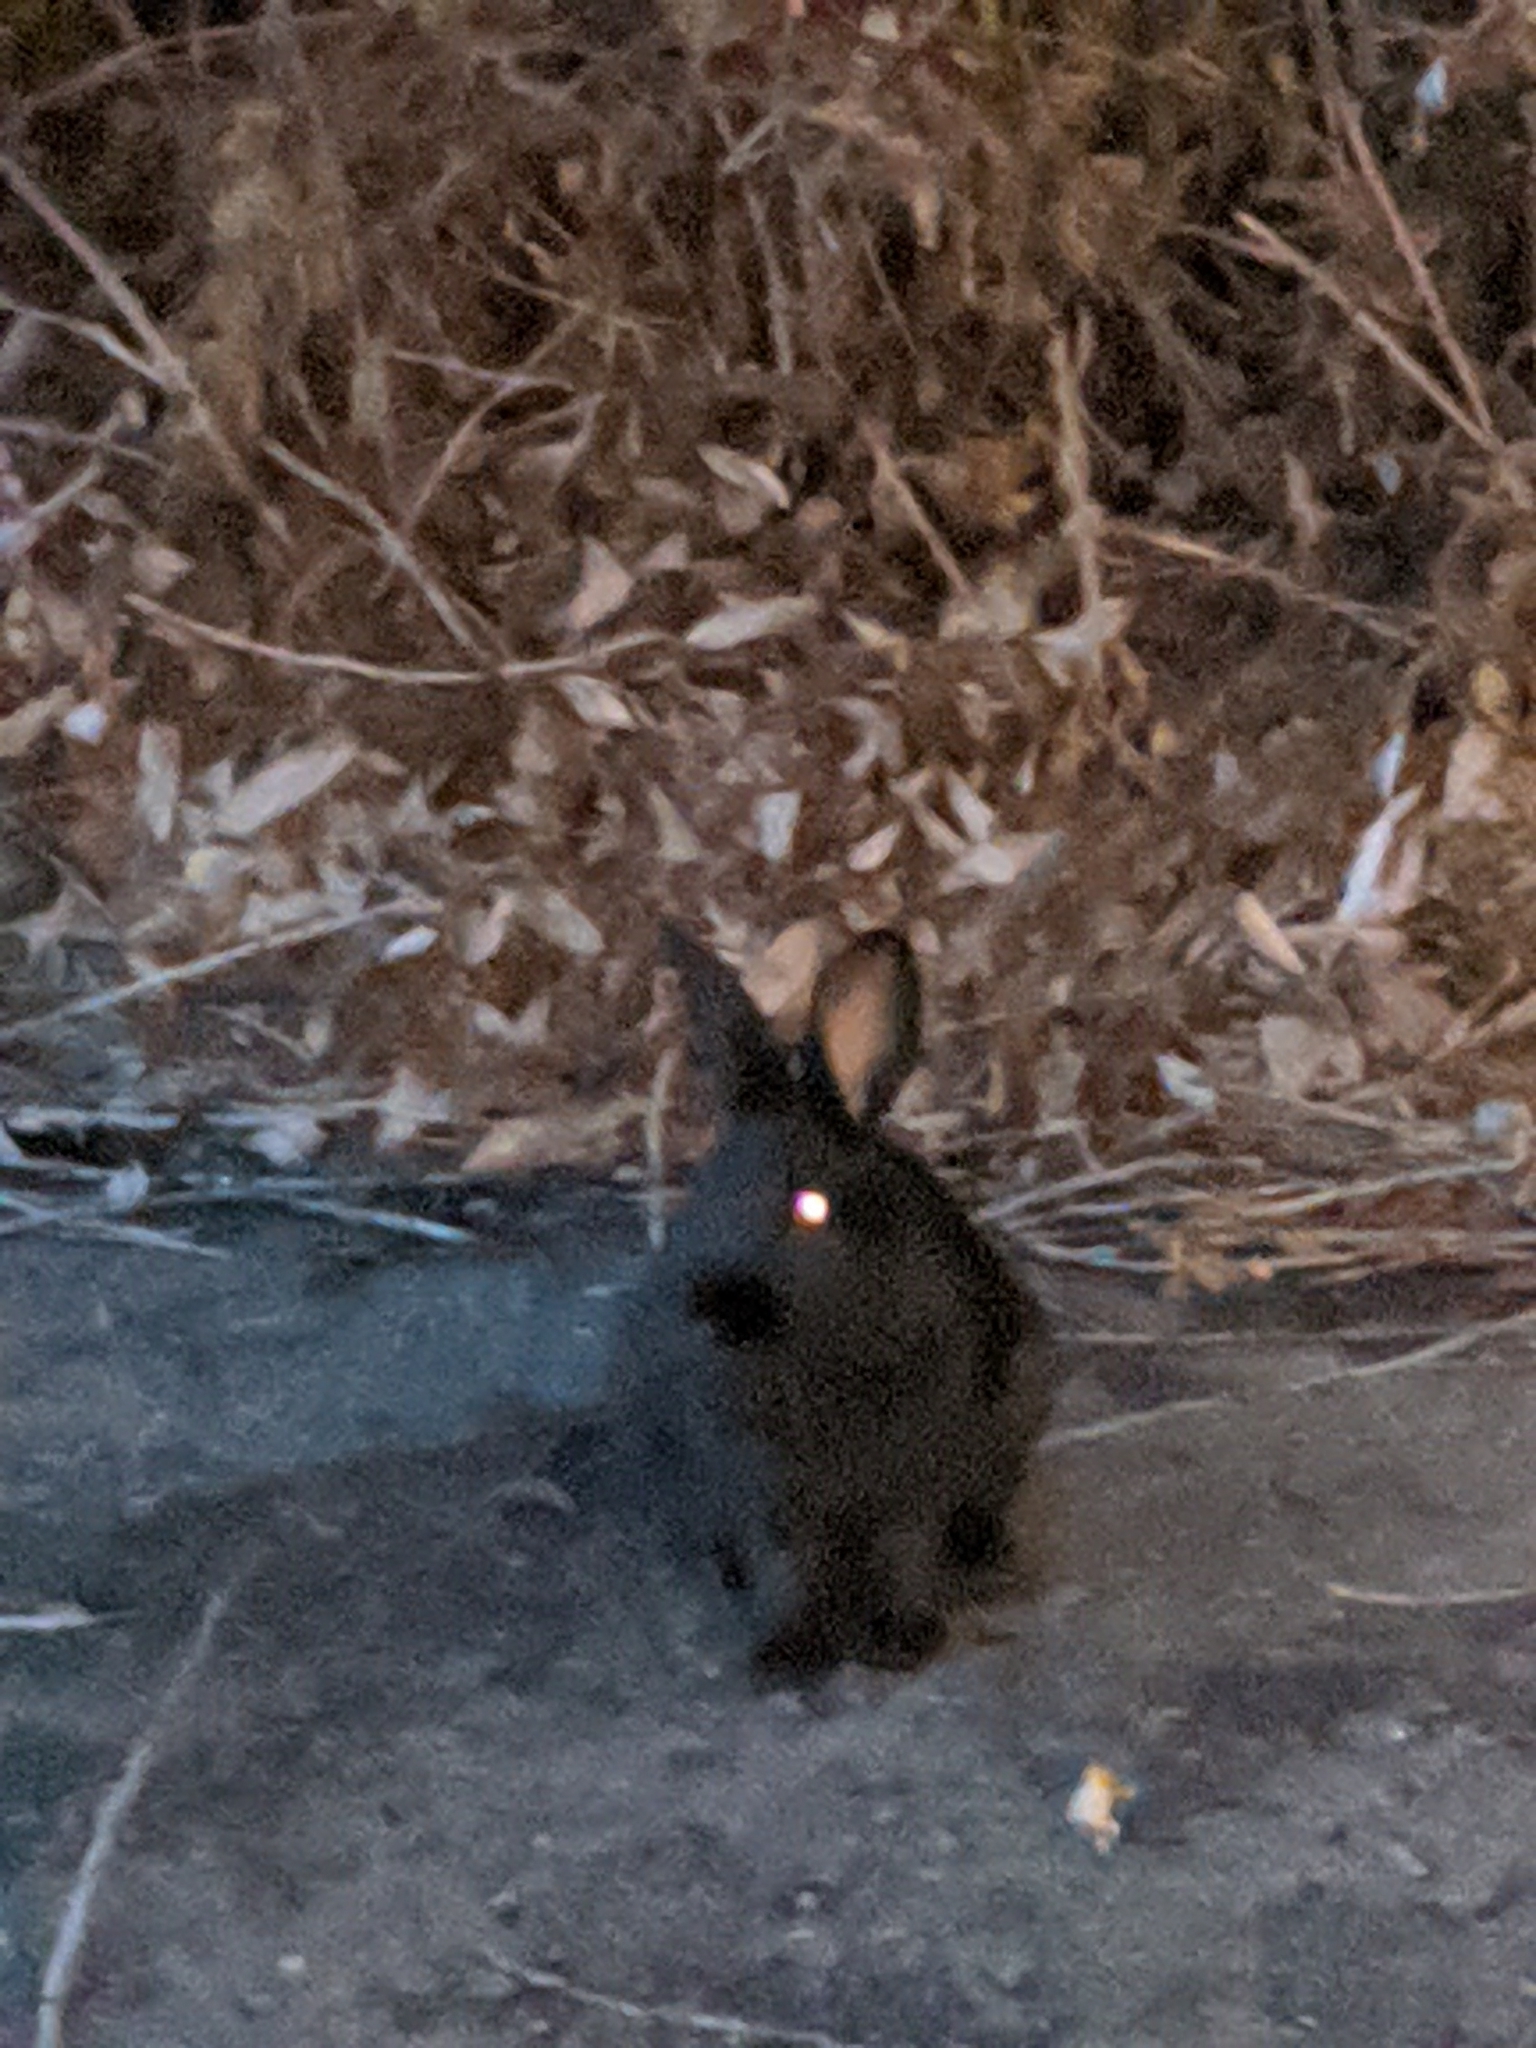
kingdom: Animalia
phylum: Chordata
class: Mammalia
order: Lagomorpha
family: Leporidae
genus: Oryctolagus
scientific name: Oryctolagus cuniculus
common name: European rabbit
